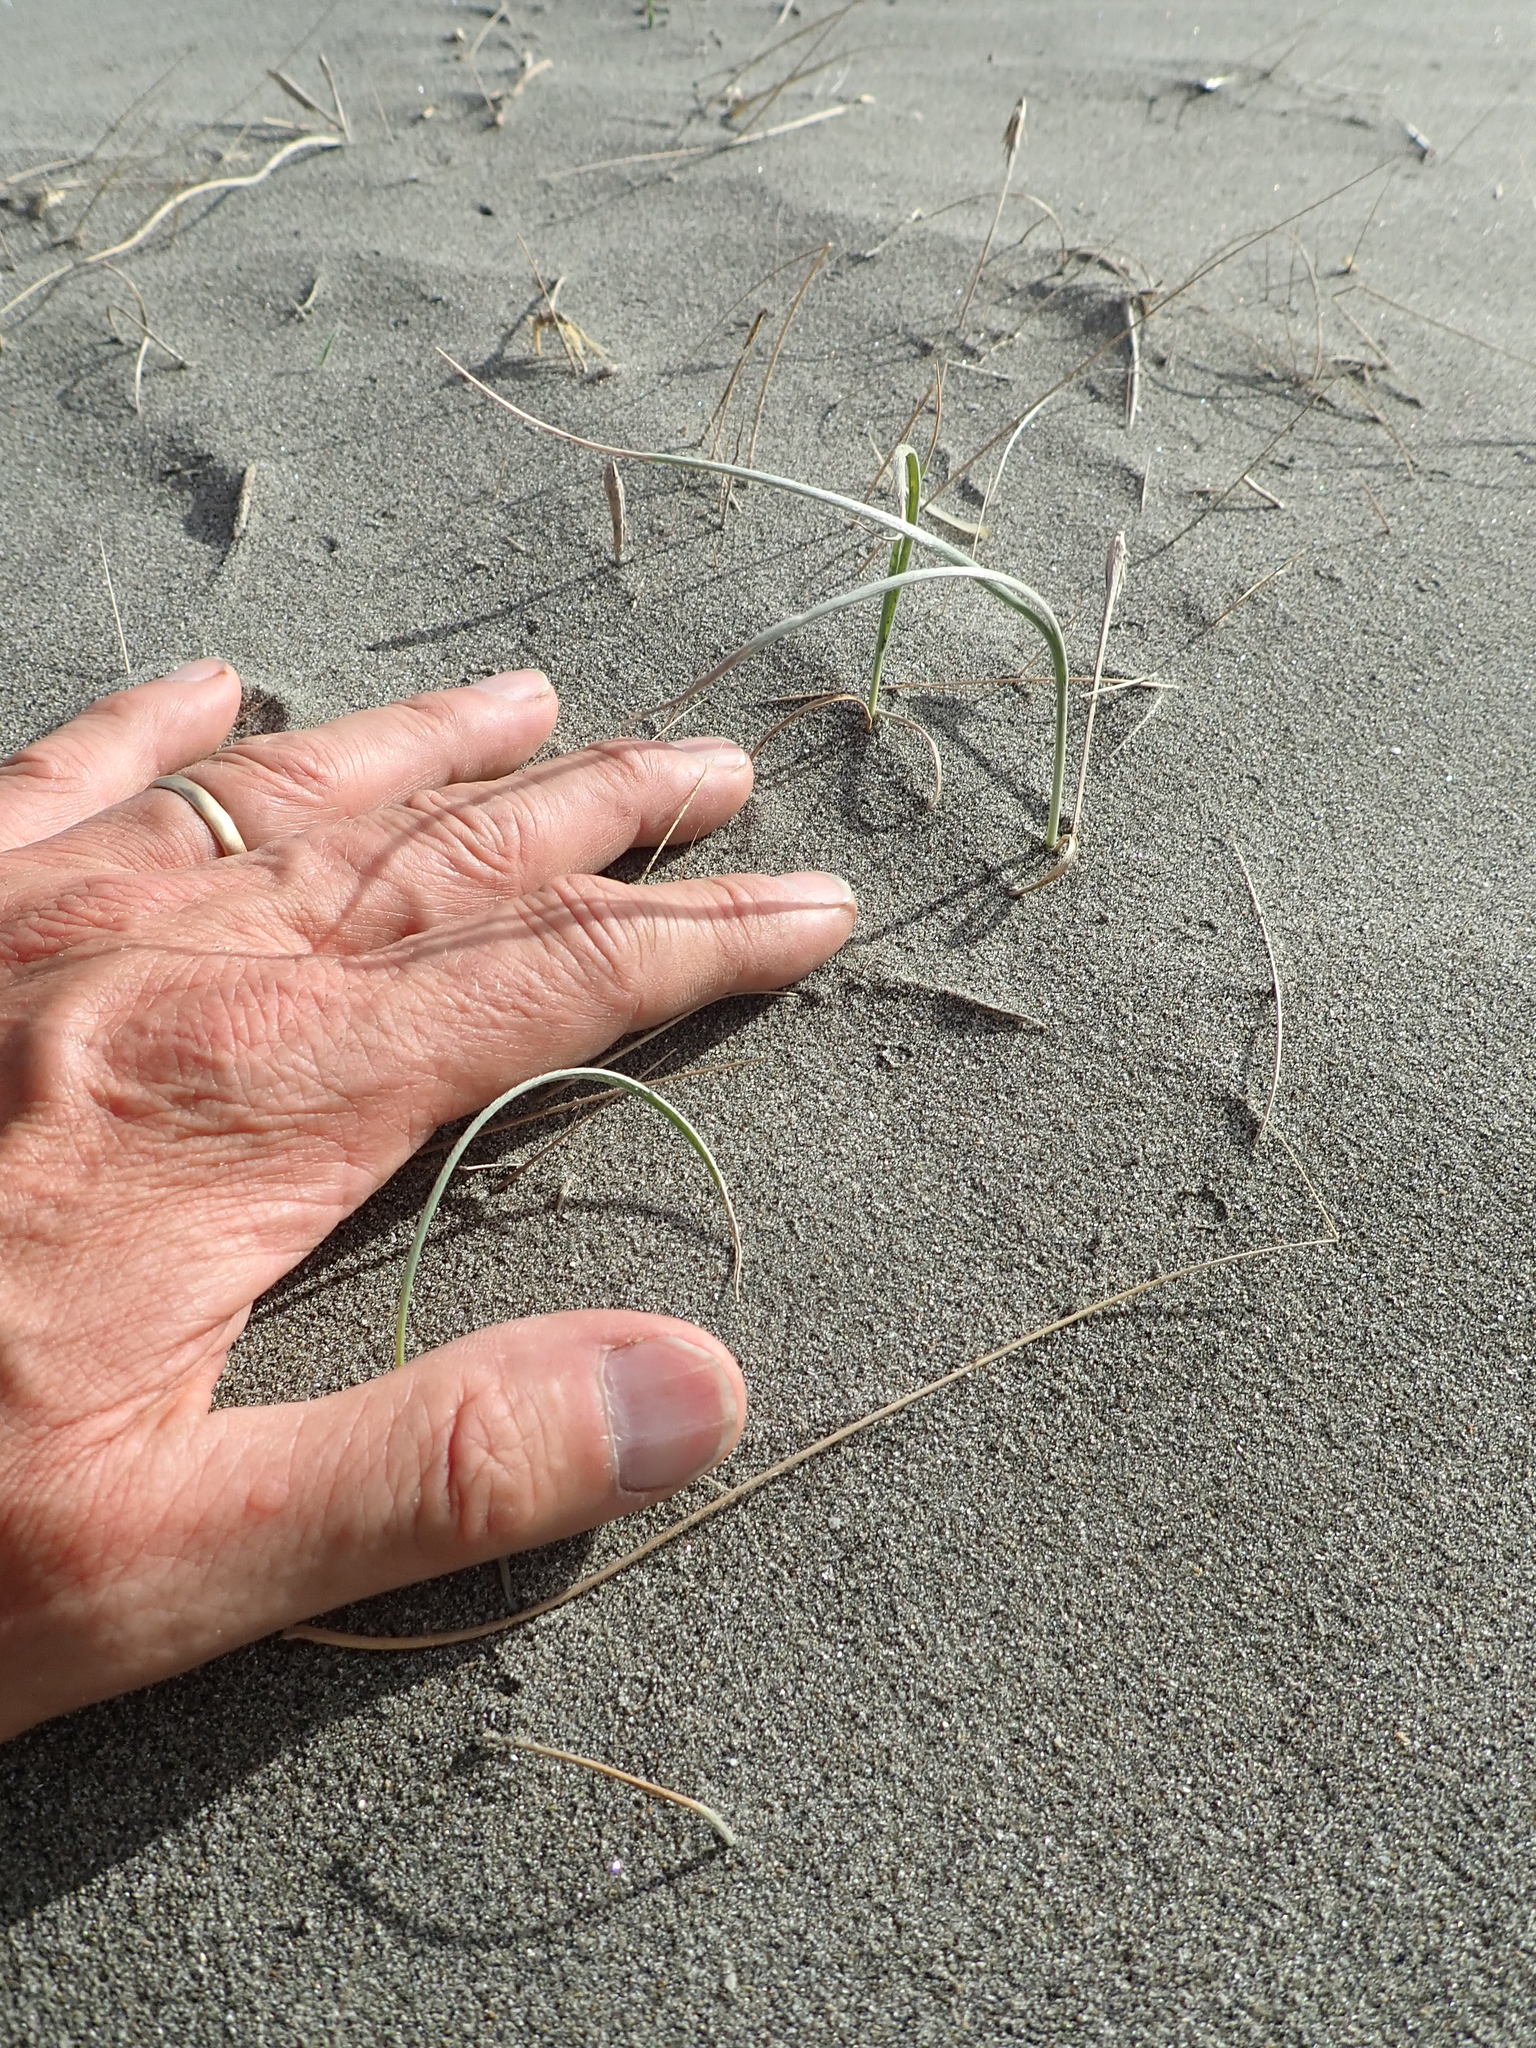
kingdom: Plantae
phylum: Tracheophyta
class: Liliopsida
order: Poales
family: Poaceae
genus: Spinifex
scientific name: Spinifex sericeus
